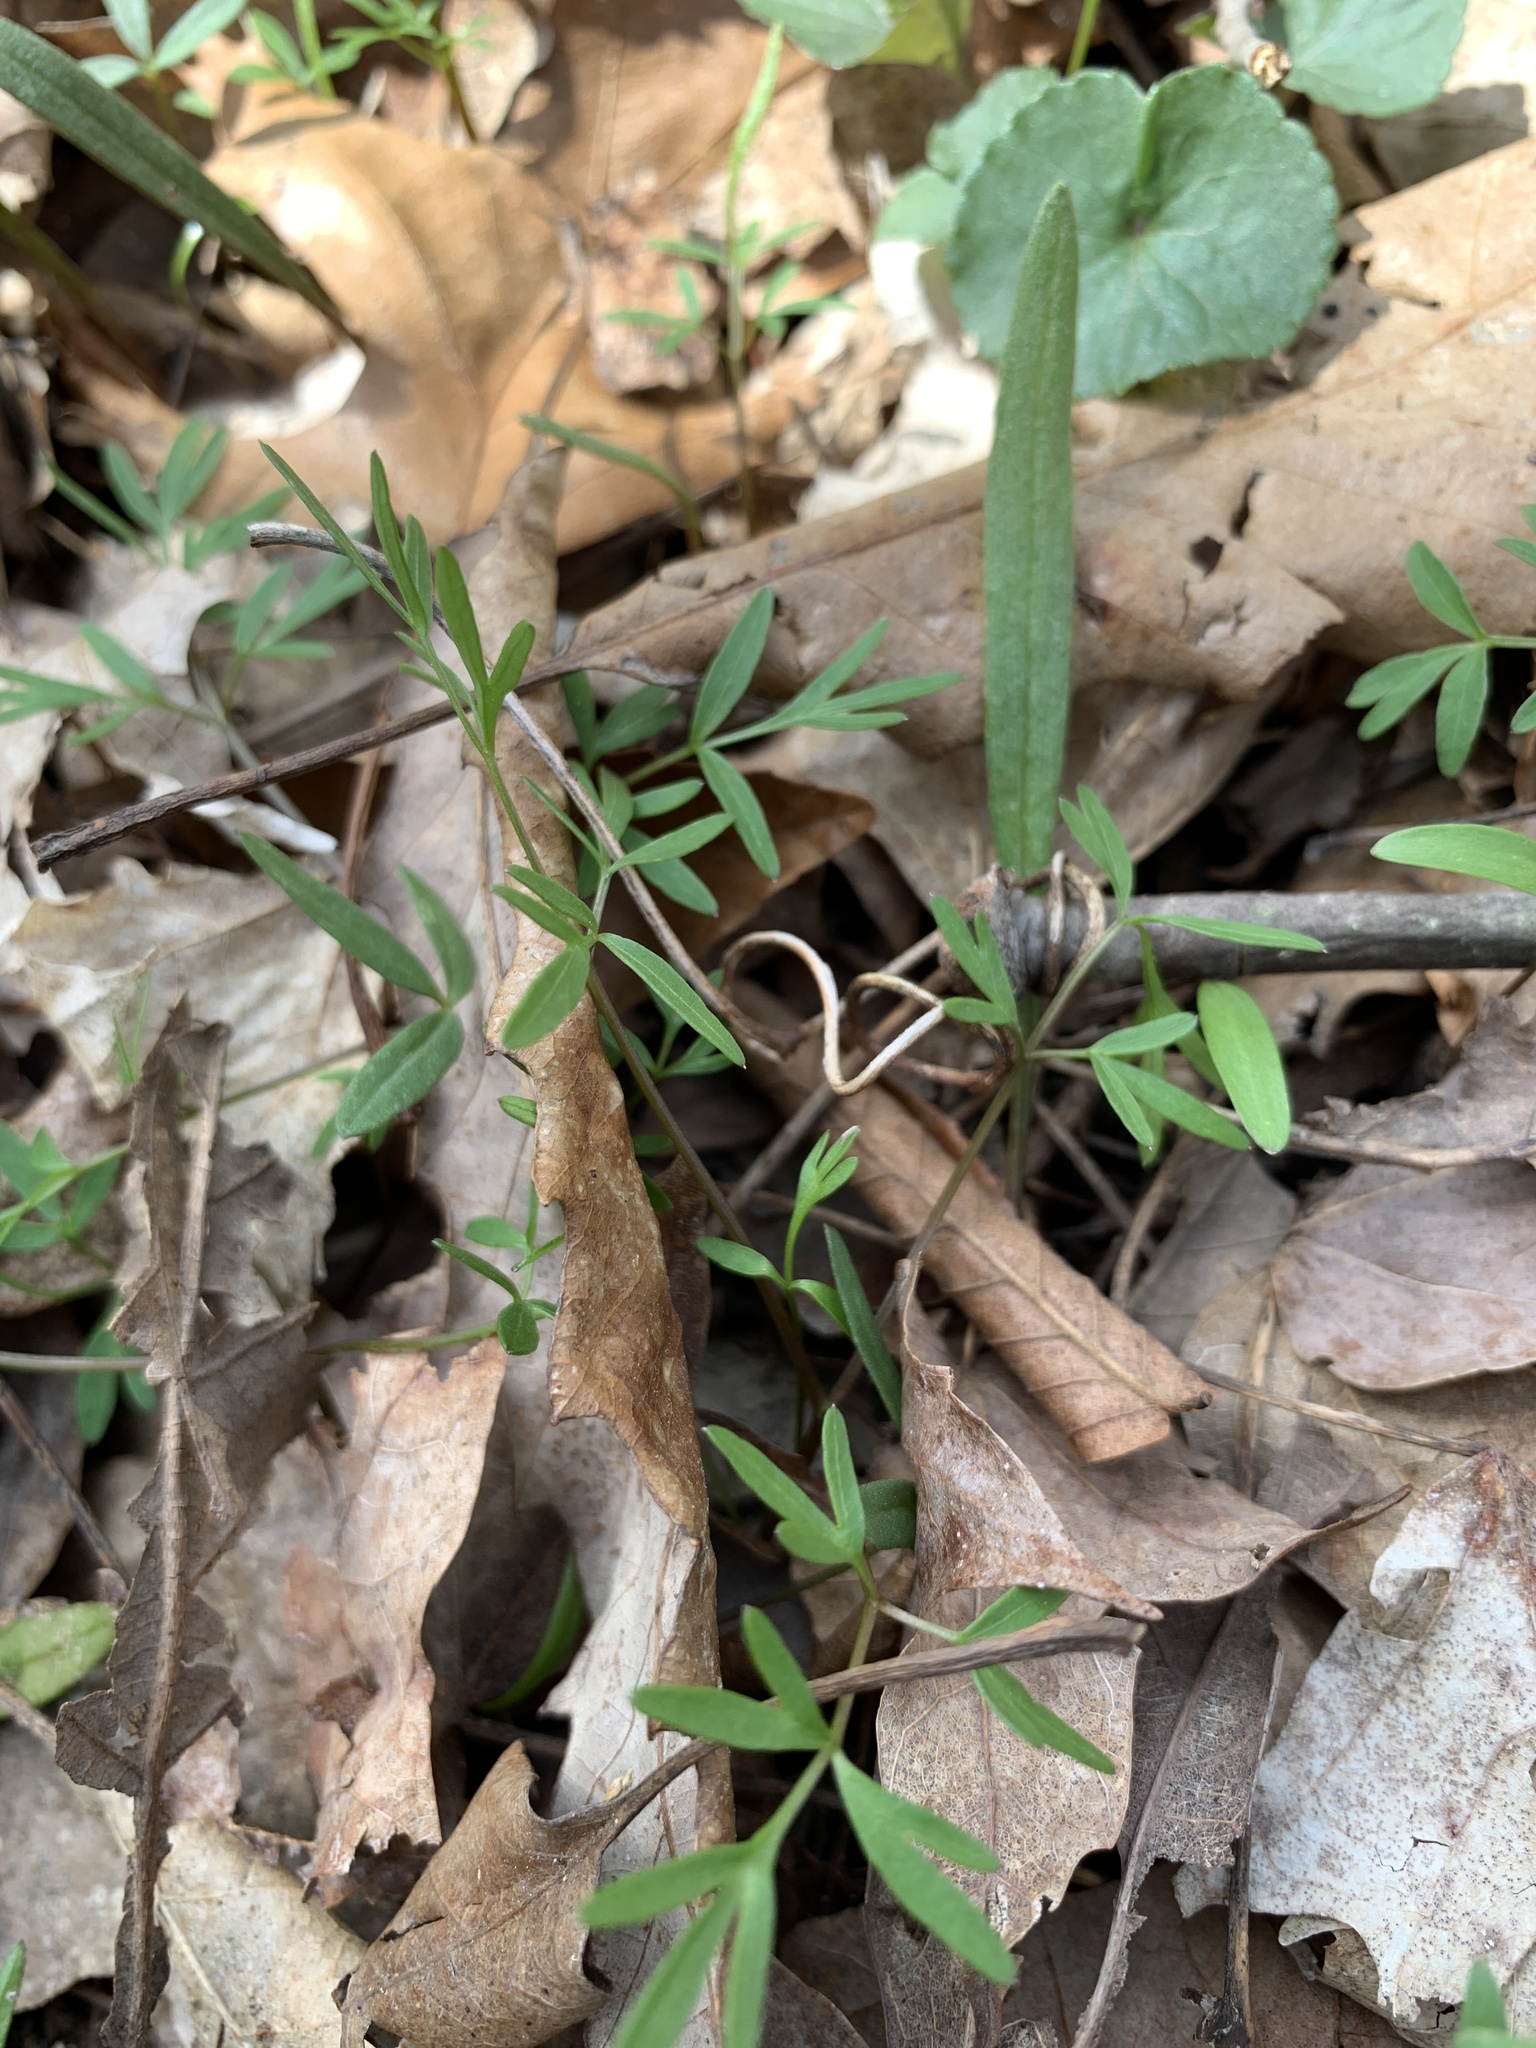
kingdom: Plantae
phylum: Tracheophyta
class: Magnoliopsida
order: Apiales
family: Apiaceae
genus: Erigenia
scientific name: Erigenia bulbosa
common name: Pepper-and-salt
